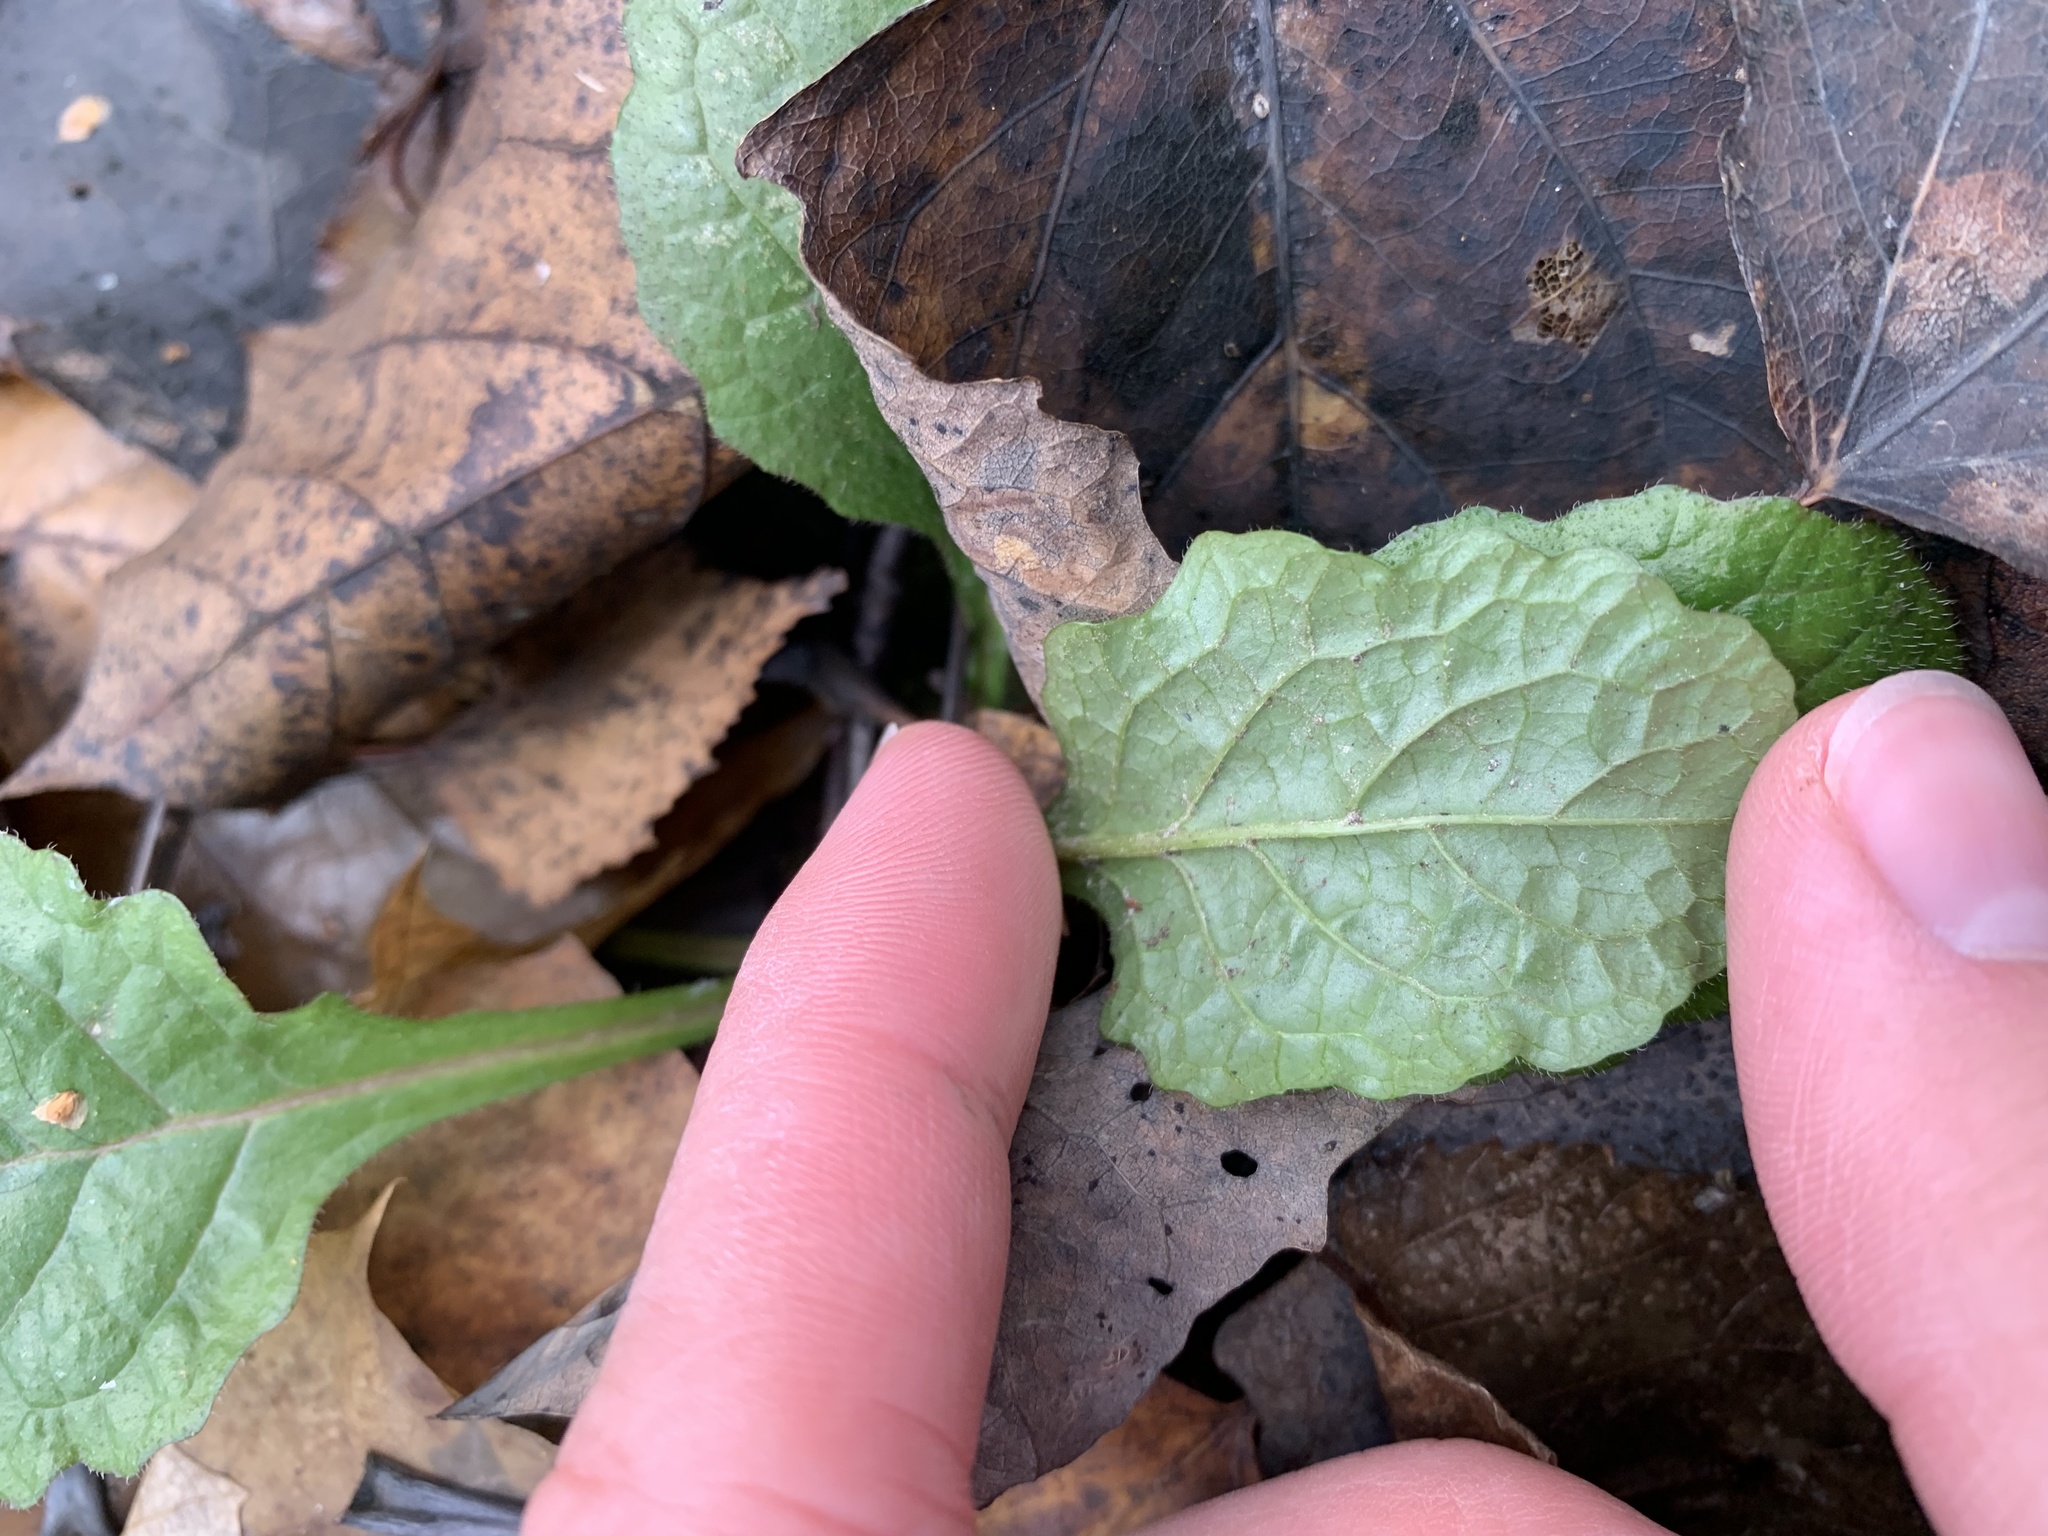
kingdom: Plantae
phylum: Tracheophyta
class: Magnoliopsida
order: Lamiales
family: Lamiaceae
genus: Ajuga
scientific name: Ajuga reptans
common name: Bugle
